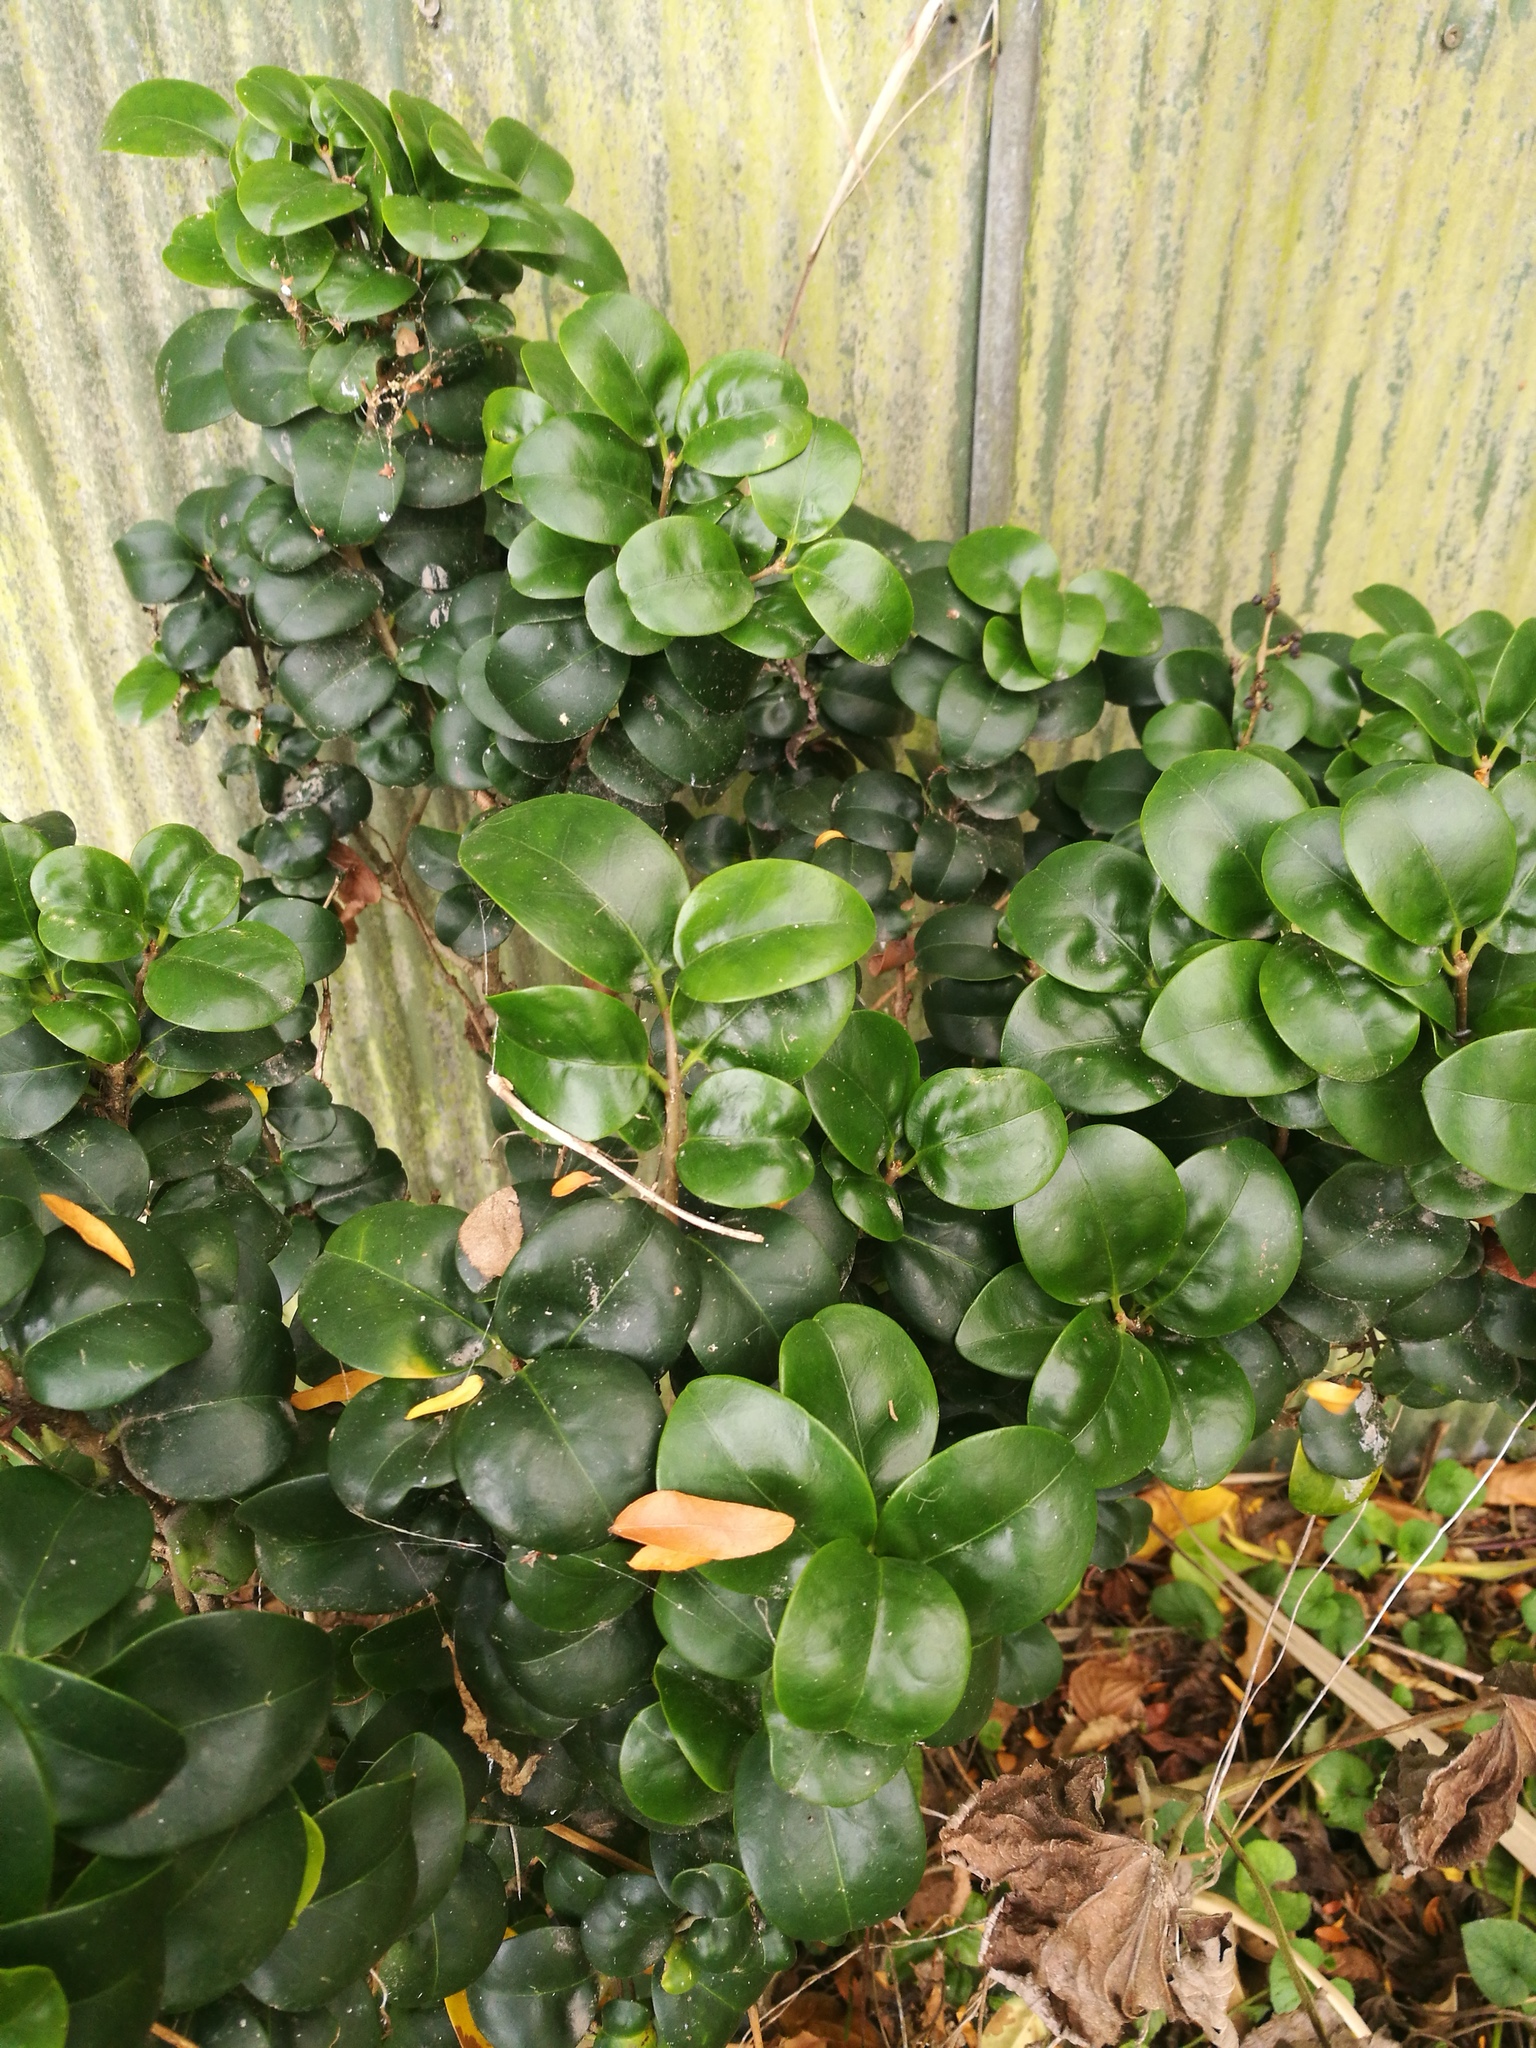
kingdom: Plantae
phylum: Tracheophyta
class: Magnoliopsida
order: Apiales
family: Araliaceae
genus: Hedera
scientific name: Hedera helix
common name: Ivy
